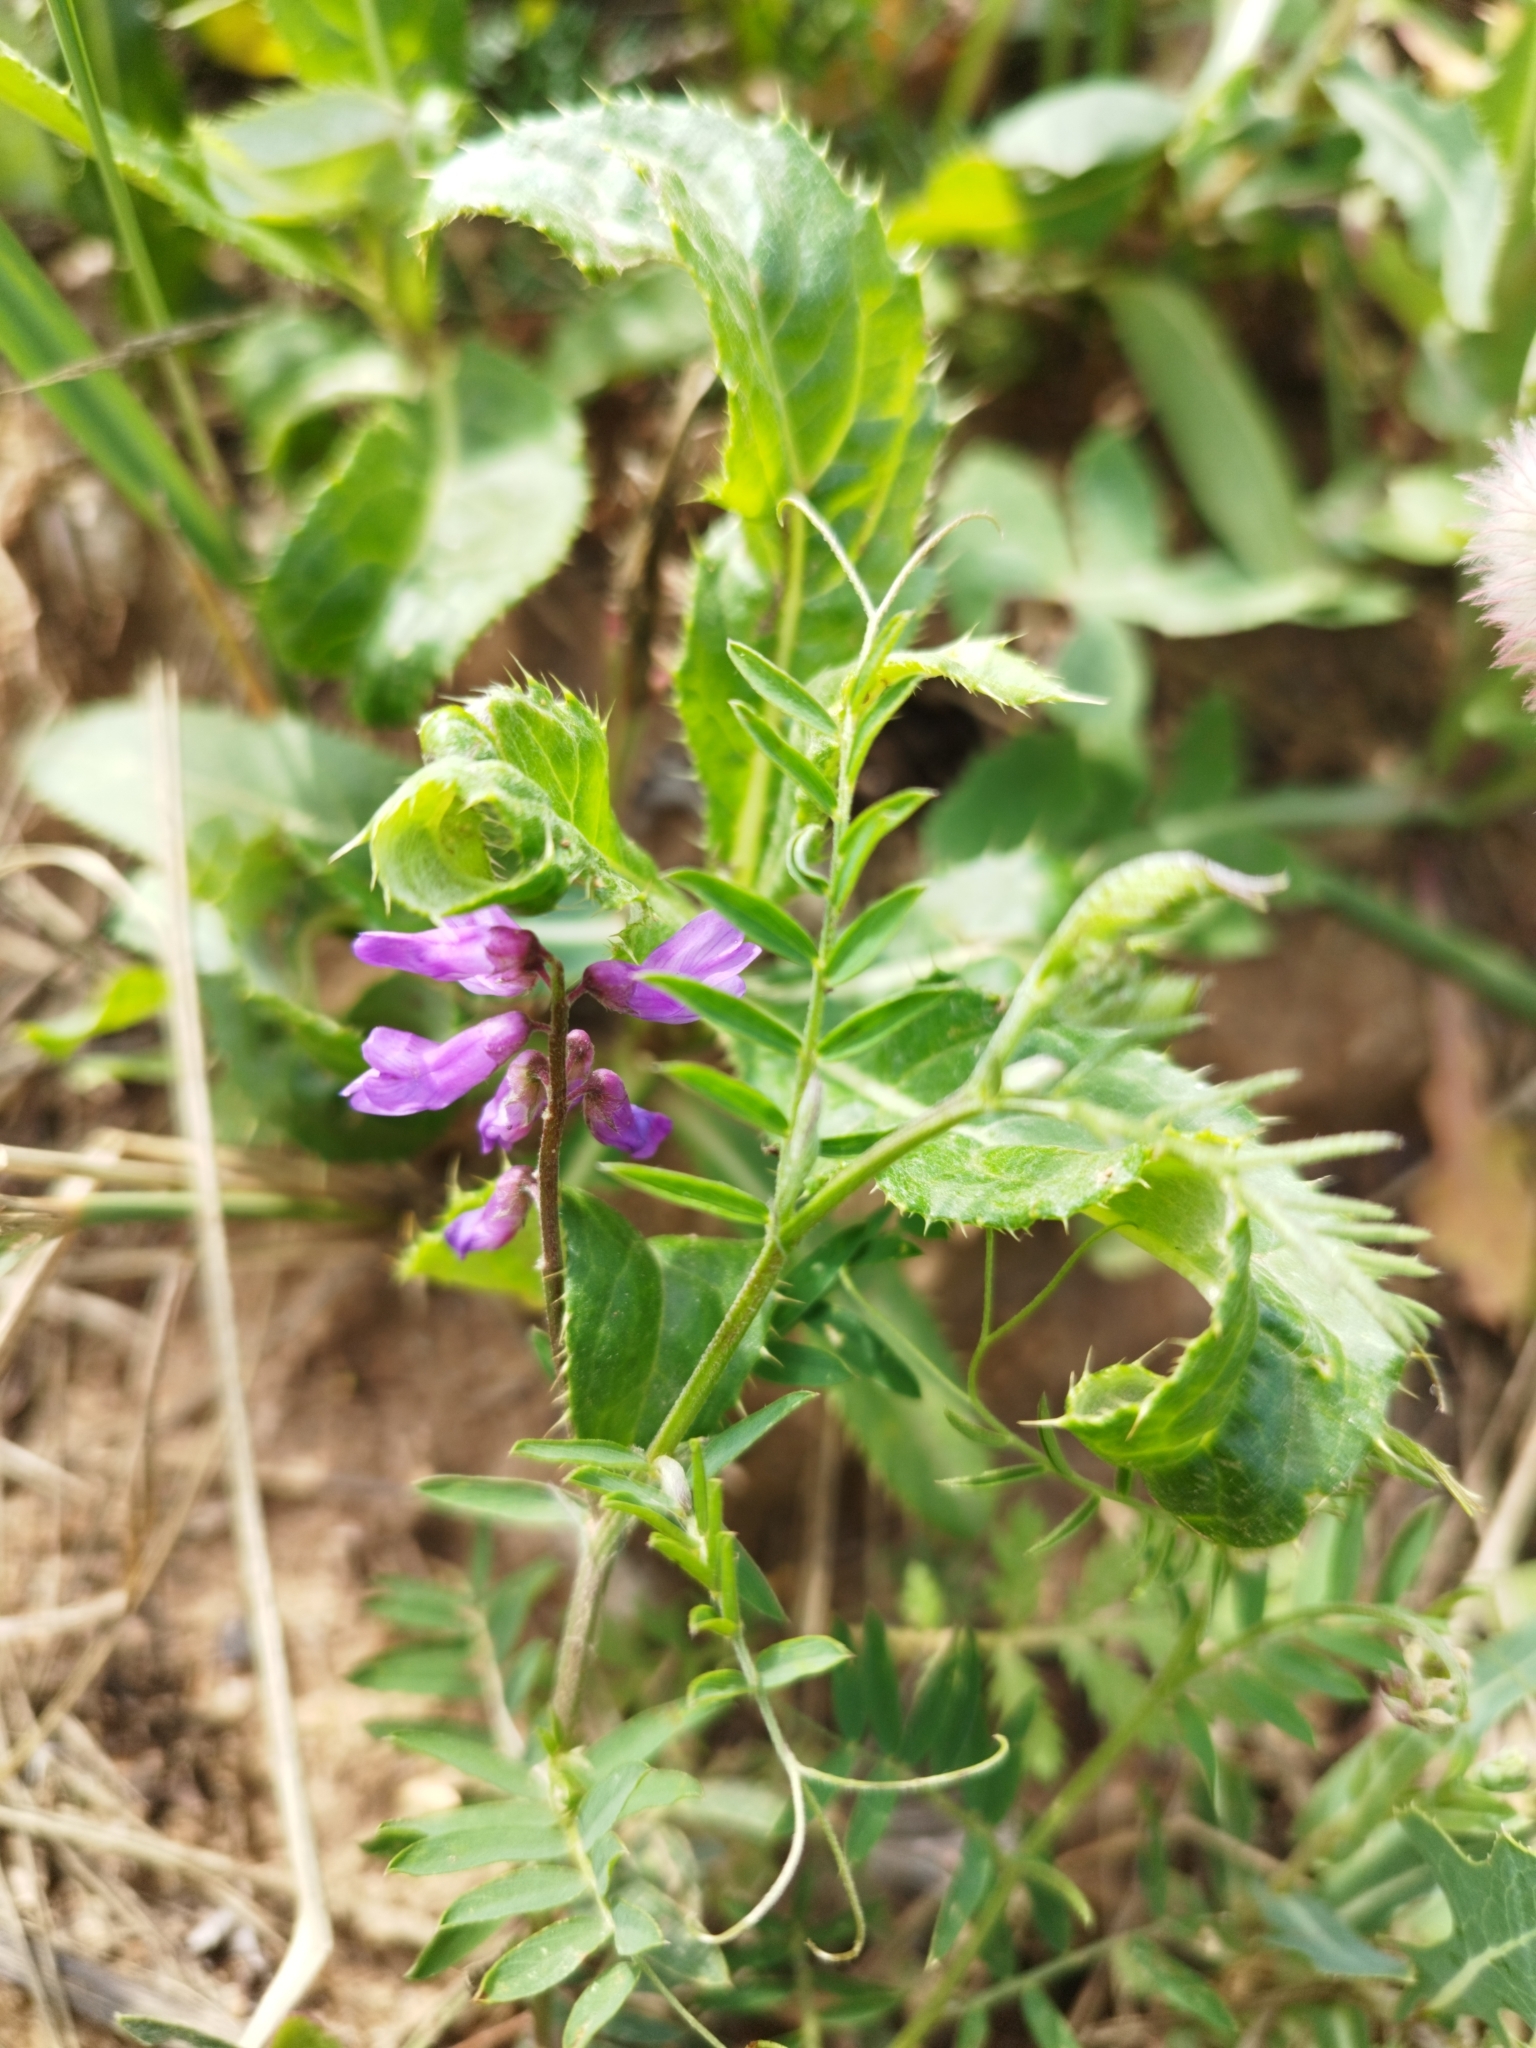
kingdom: Plantae
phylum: Tracheophyta
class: Magnoliopsida
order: Fabales
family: Fabaceae
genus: Vicia
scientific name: Vicia cracca
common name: Bird vetch
